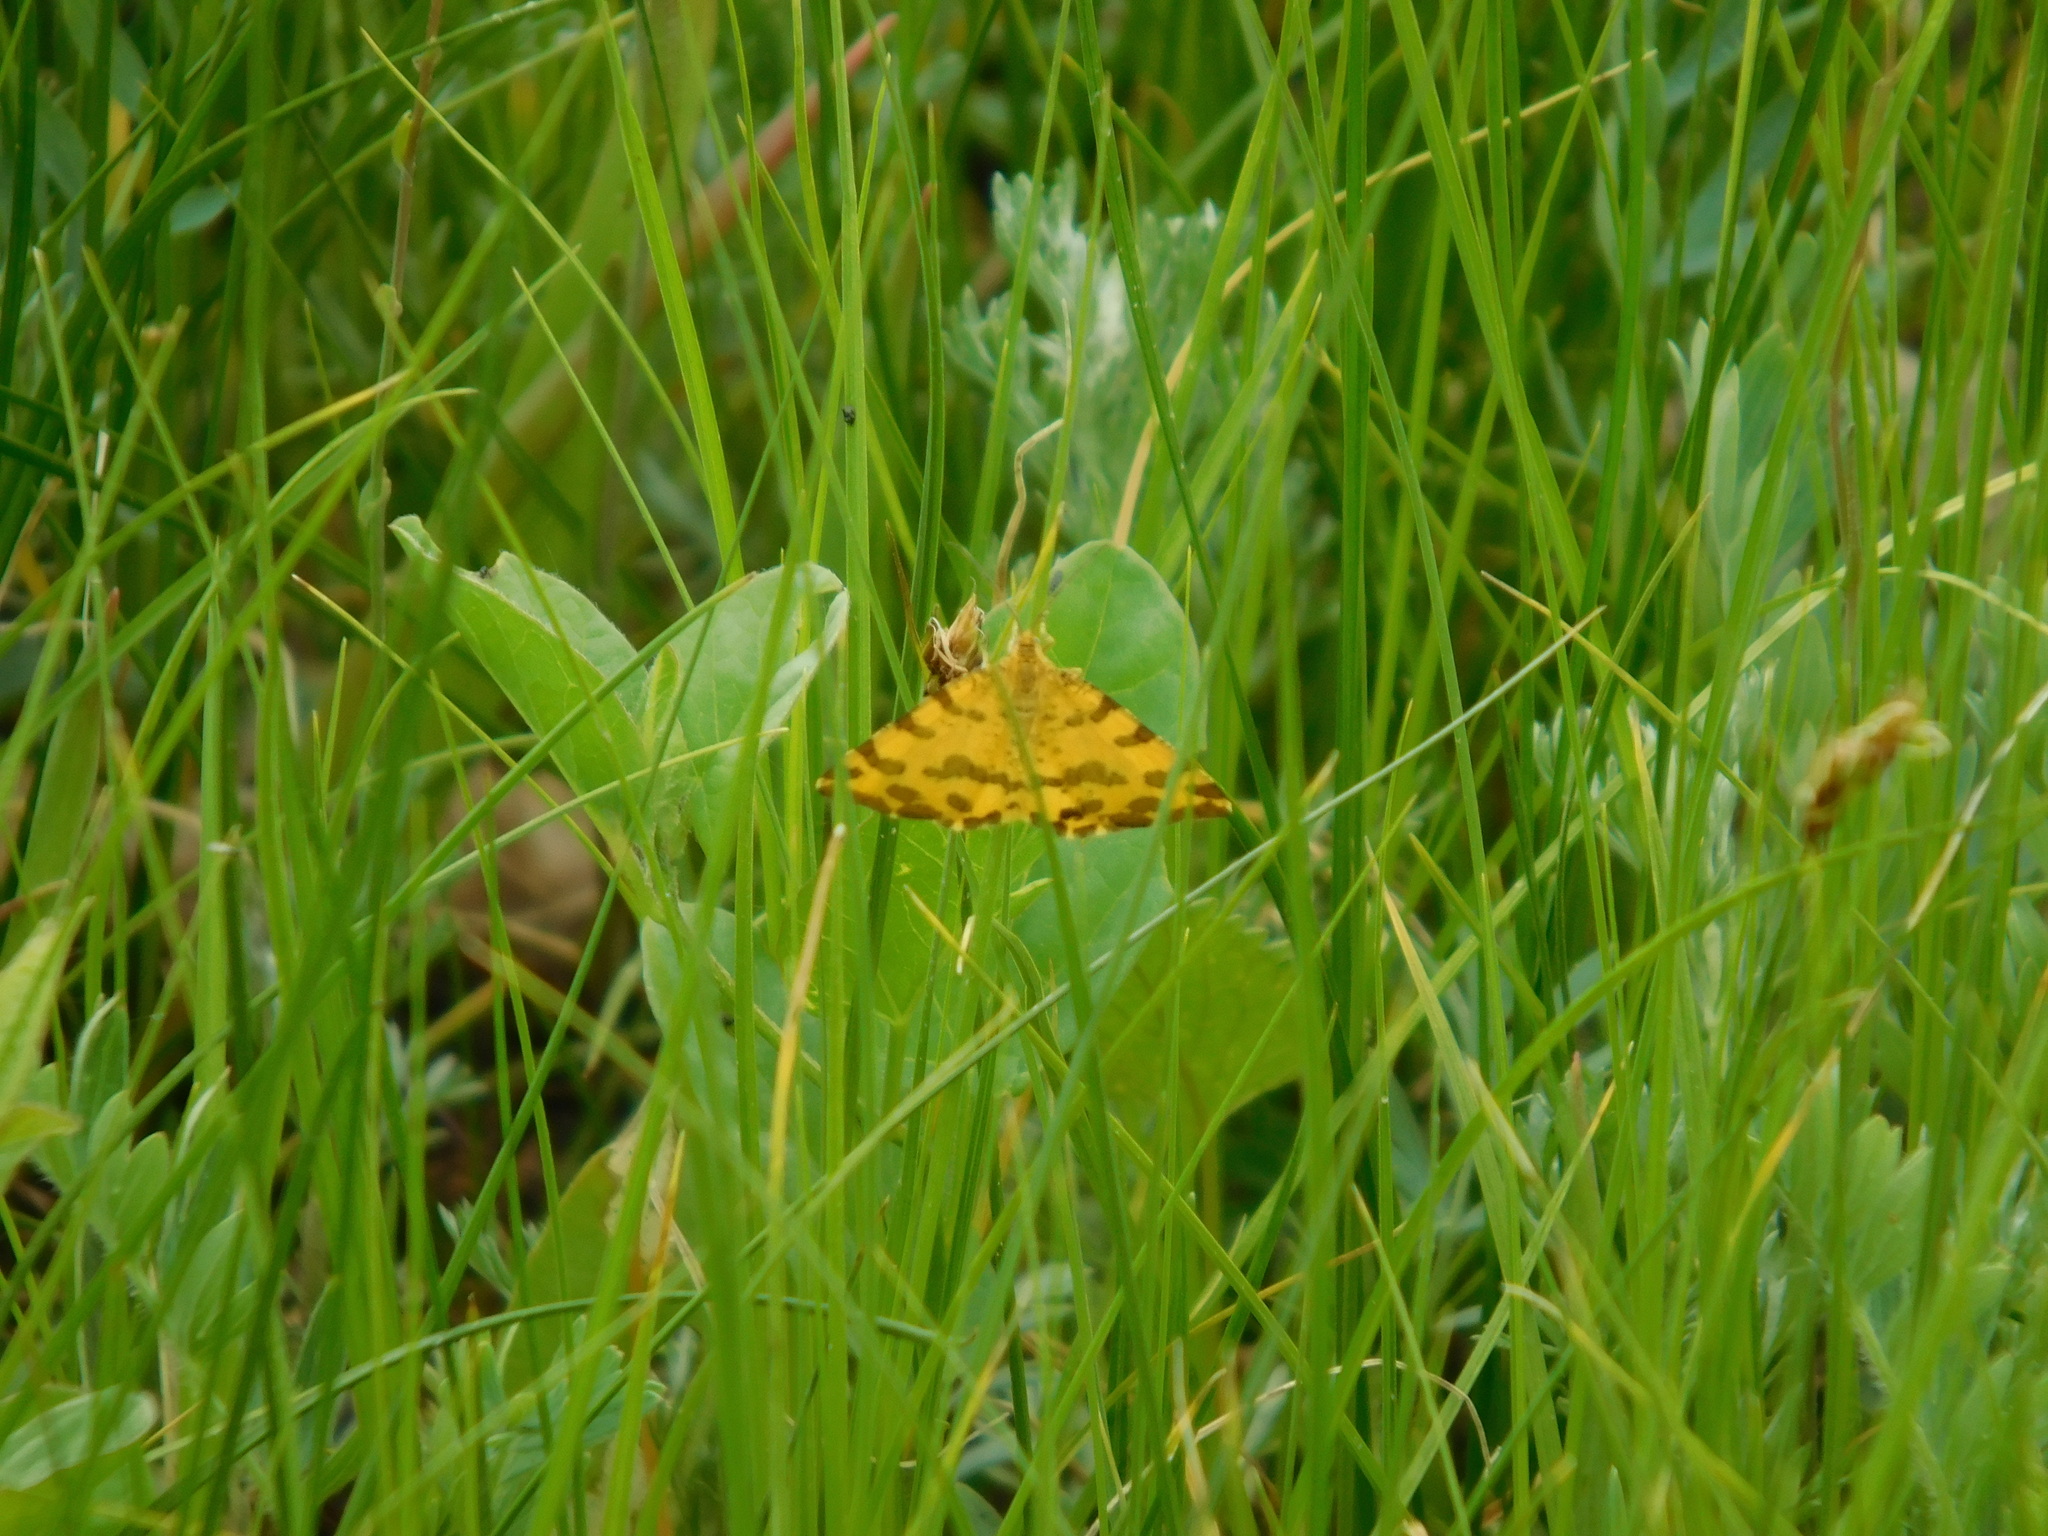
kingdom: Animalia
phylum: Arthropoda
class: Insecta
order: Lepidoptera
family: Geometridae
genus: Pseudopanthera
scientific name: Pseudopanthera macularia
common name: Speckled yellow
